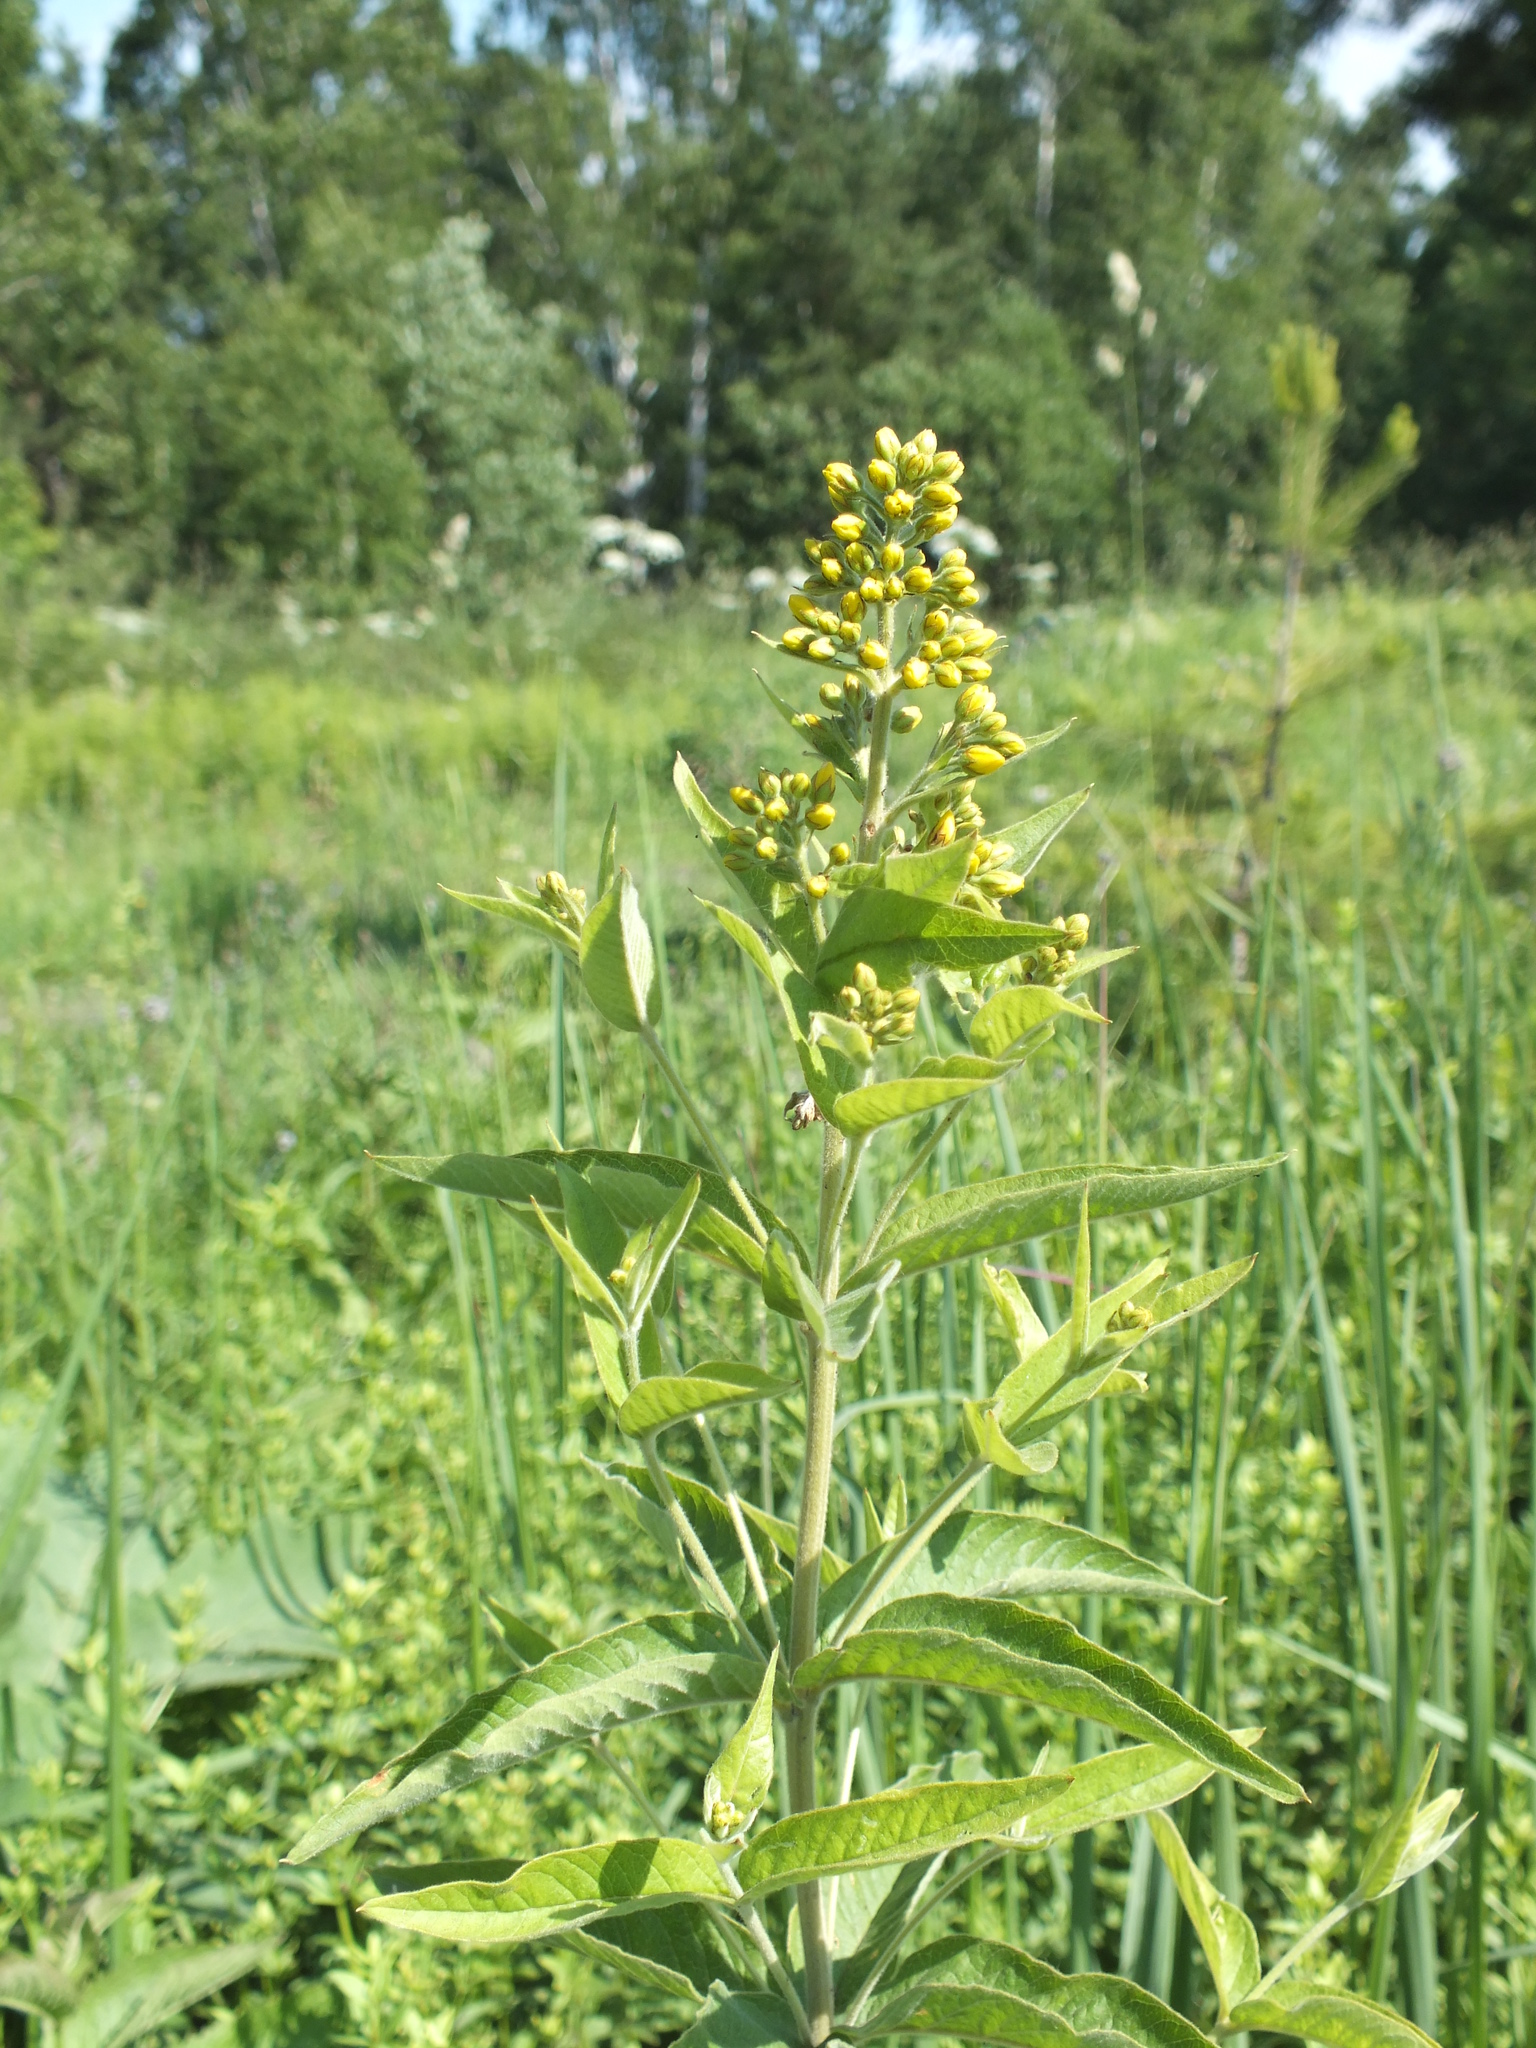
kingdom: Plantae
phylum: Tracheophyta
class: Magnoliopsida
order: Ericales
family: Primulaceae
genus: Lysimachia
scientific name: Lysimachia vulgaris
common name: Yellow loosestrife
